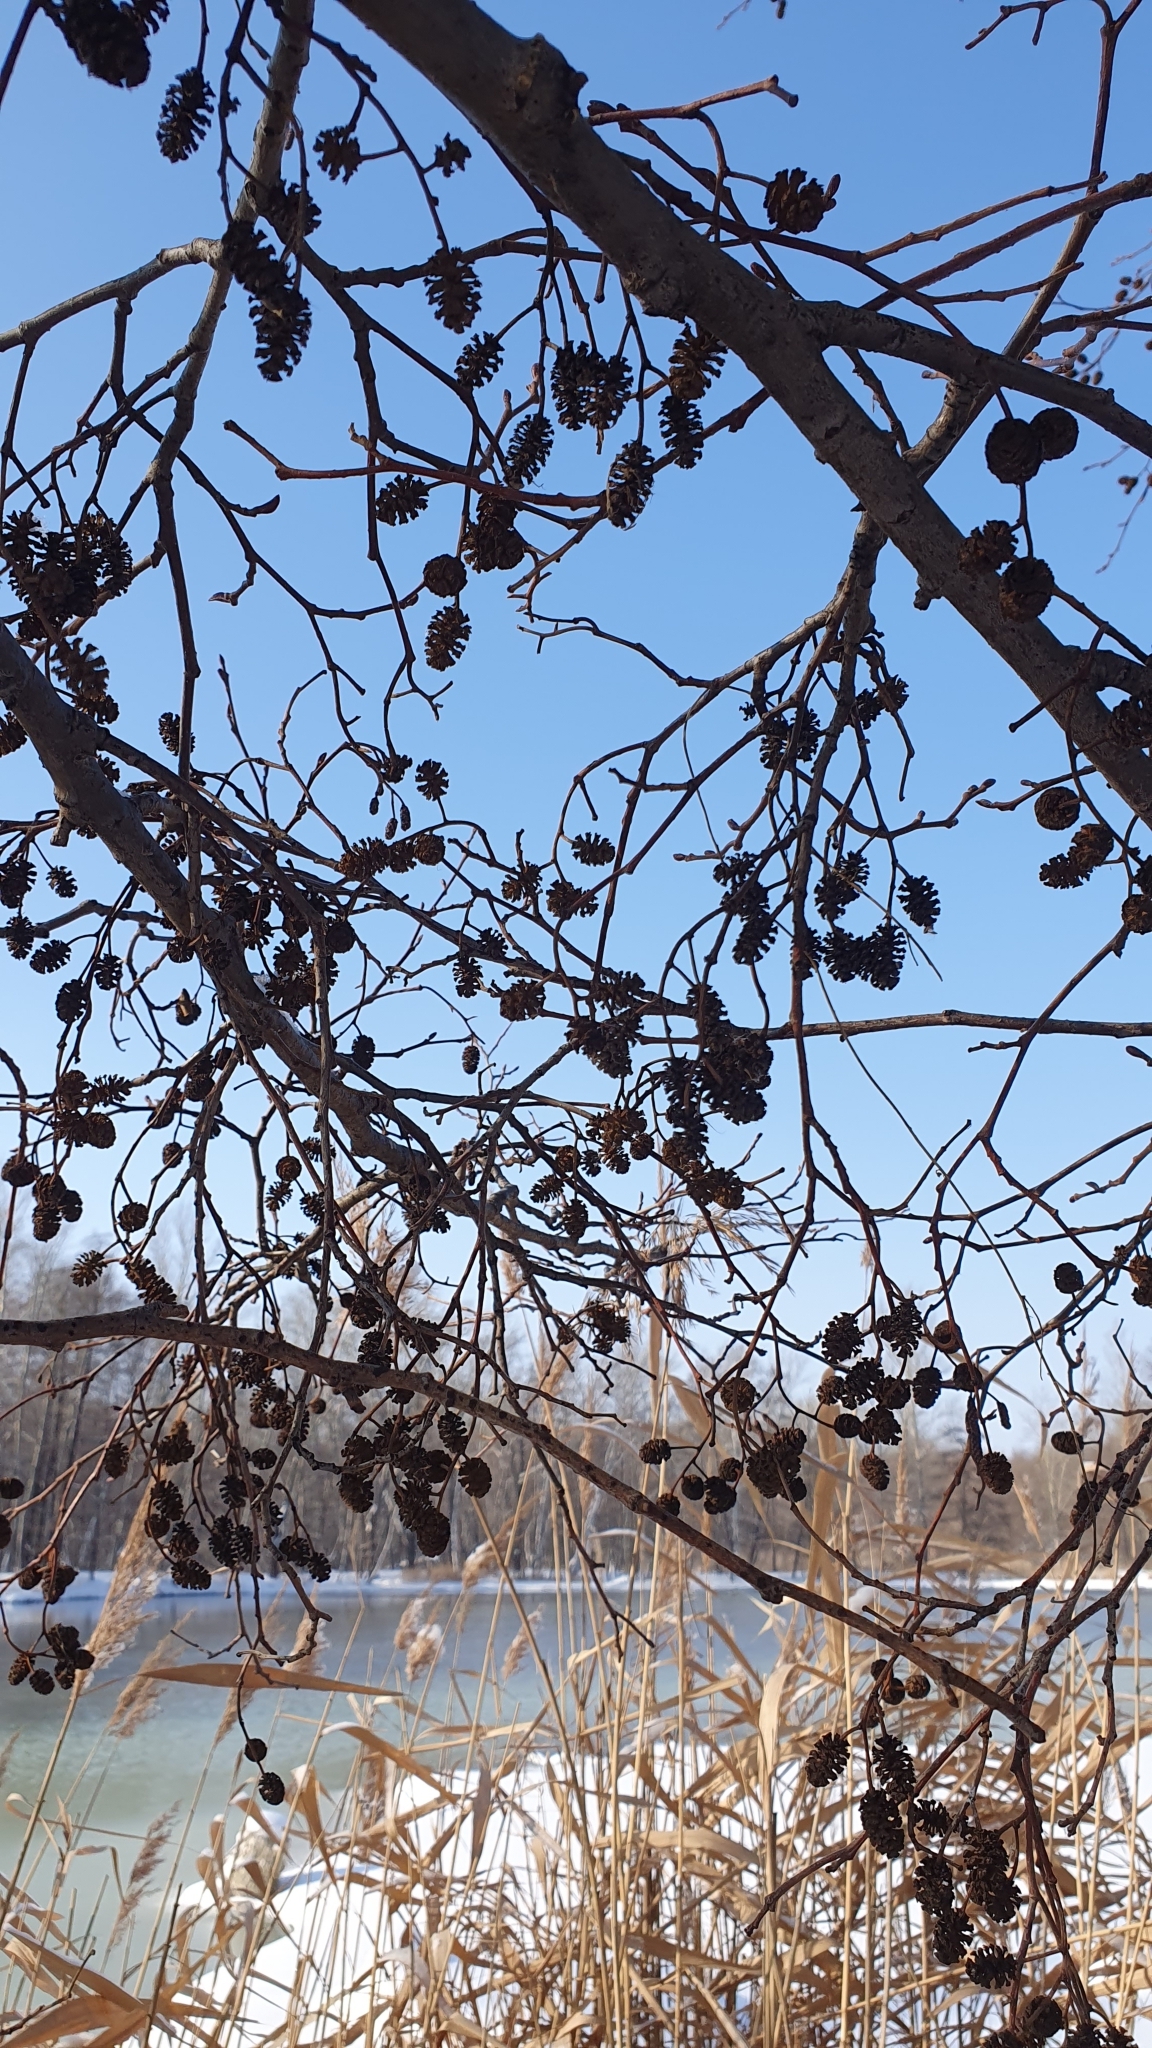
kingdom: Plantae
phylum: Tracheophyta
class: Magnoliopsida
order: Fagales
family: Betulaceae
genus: Alnus
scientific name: Alnus glutinosa
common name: Black alder
